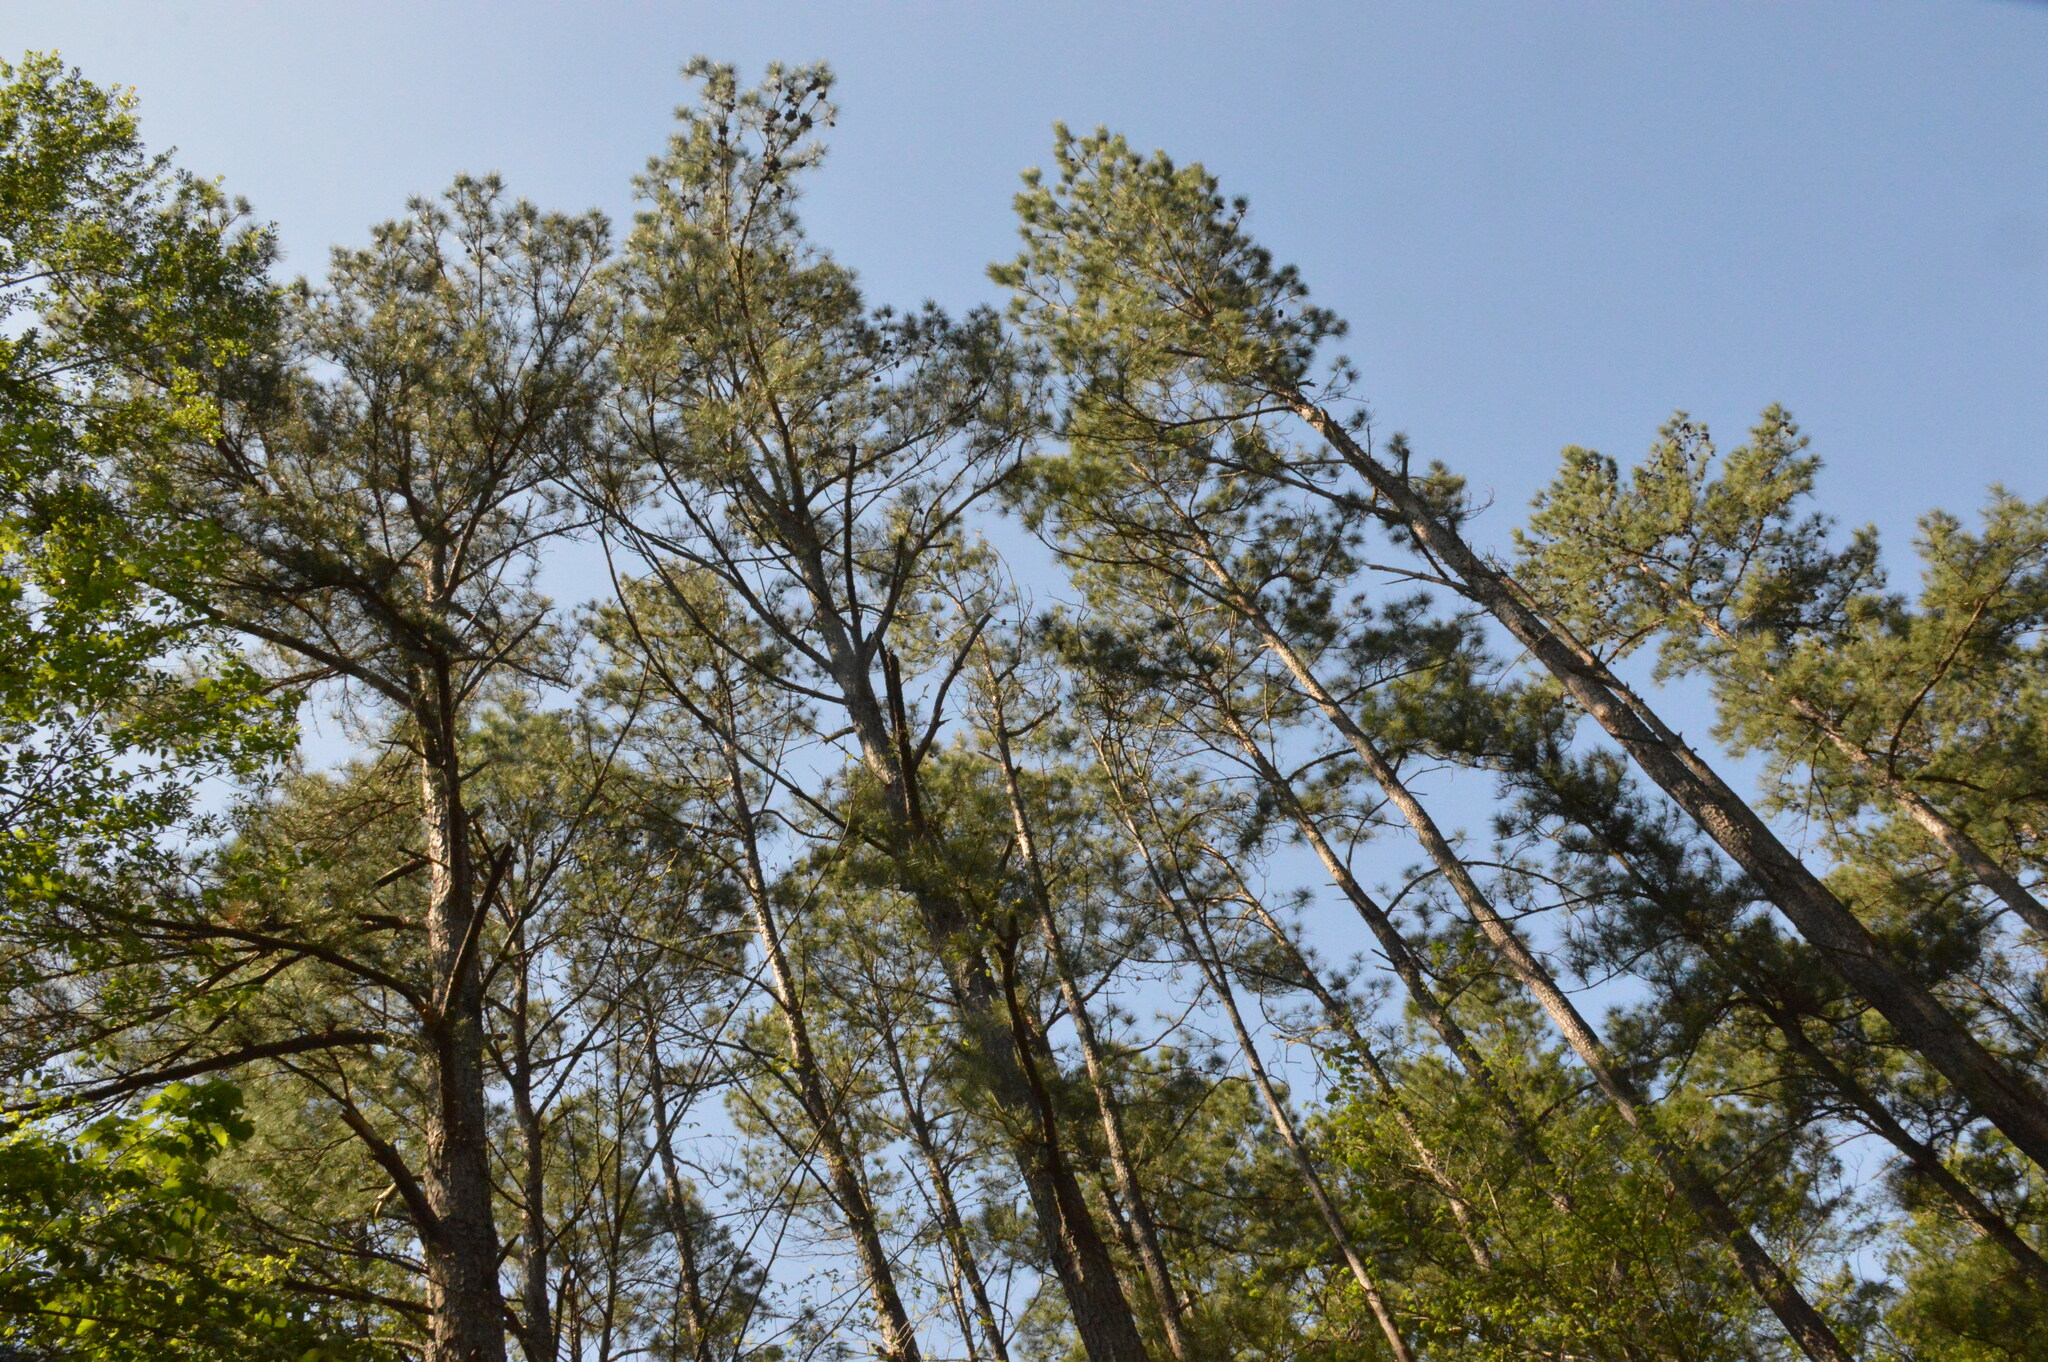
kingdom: Plantae
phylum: Tracheophyta
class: Pinopsida
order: Pinales
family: Pinaceae
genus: Pinus
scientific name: Pinus taeda
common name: Loblolly pine
